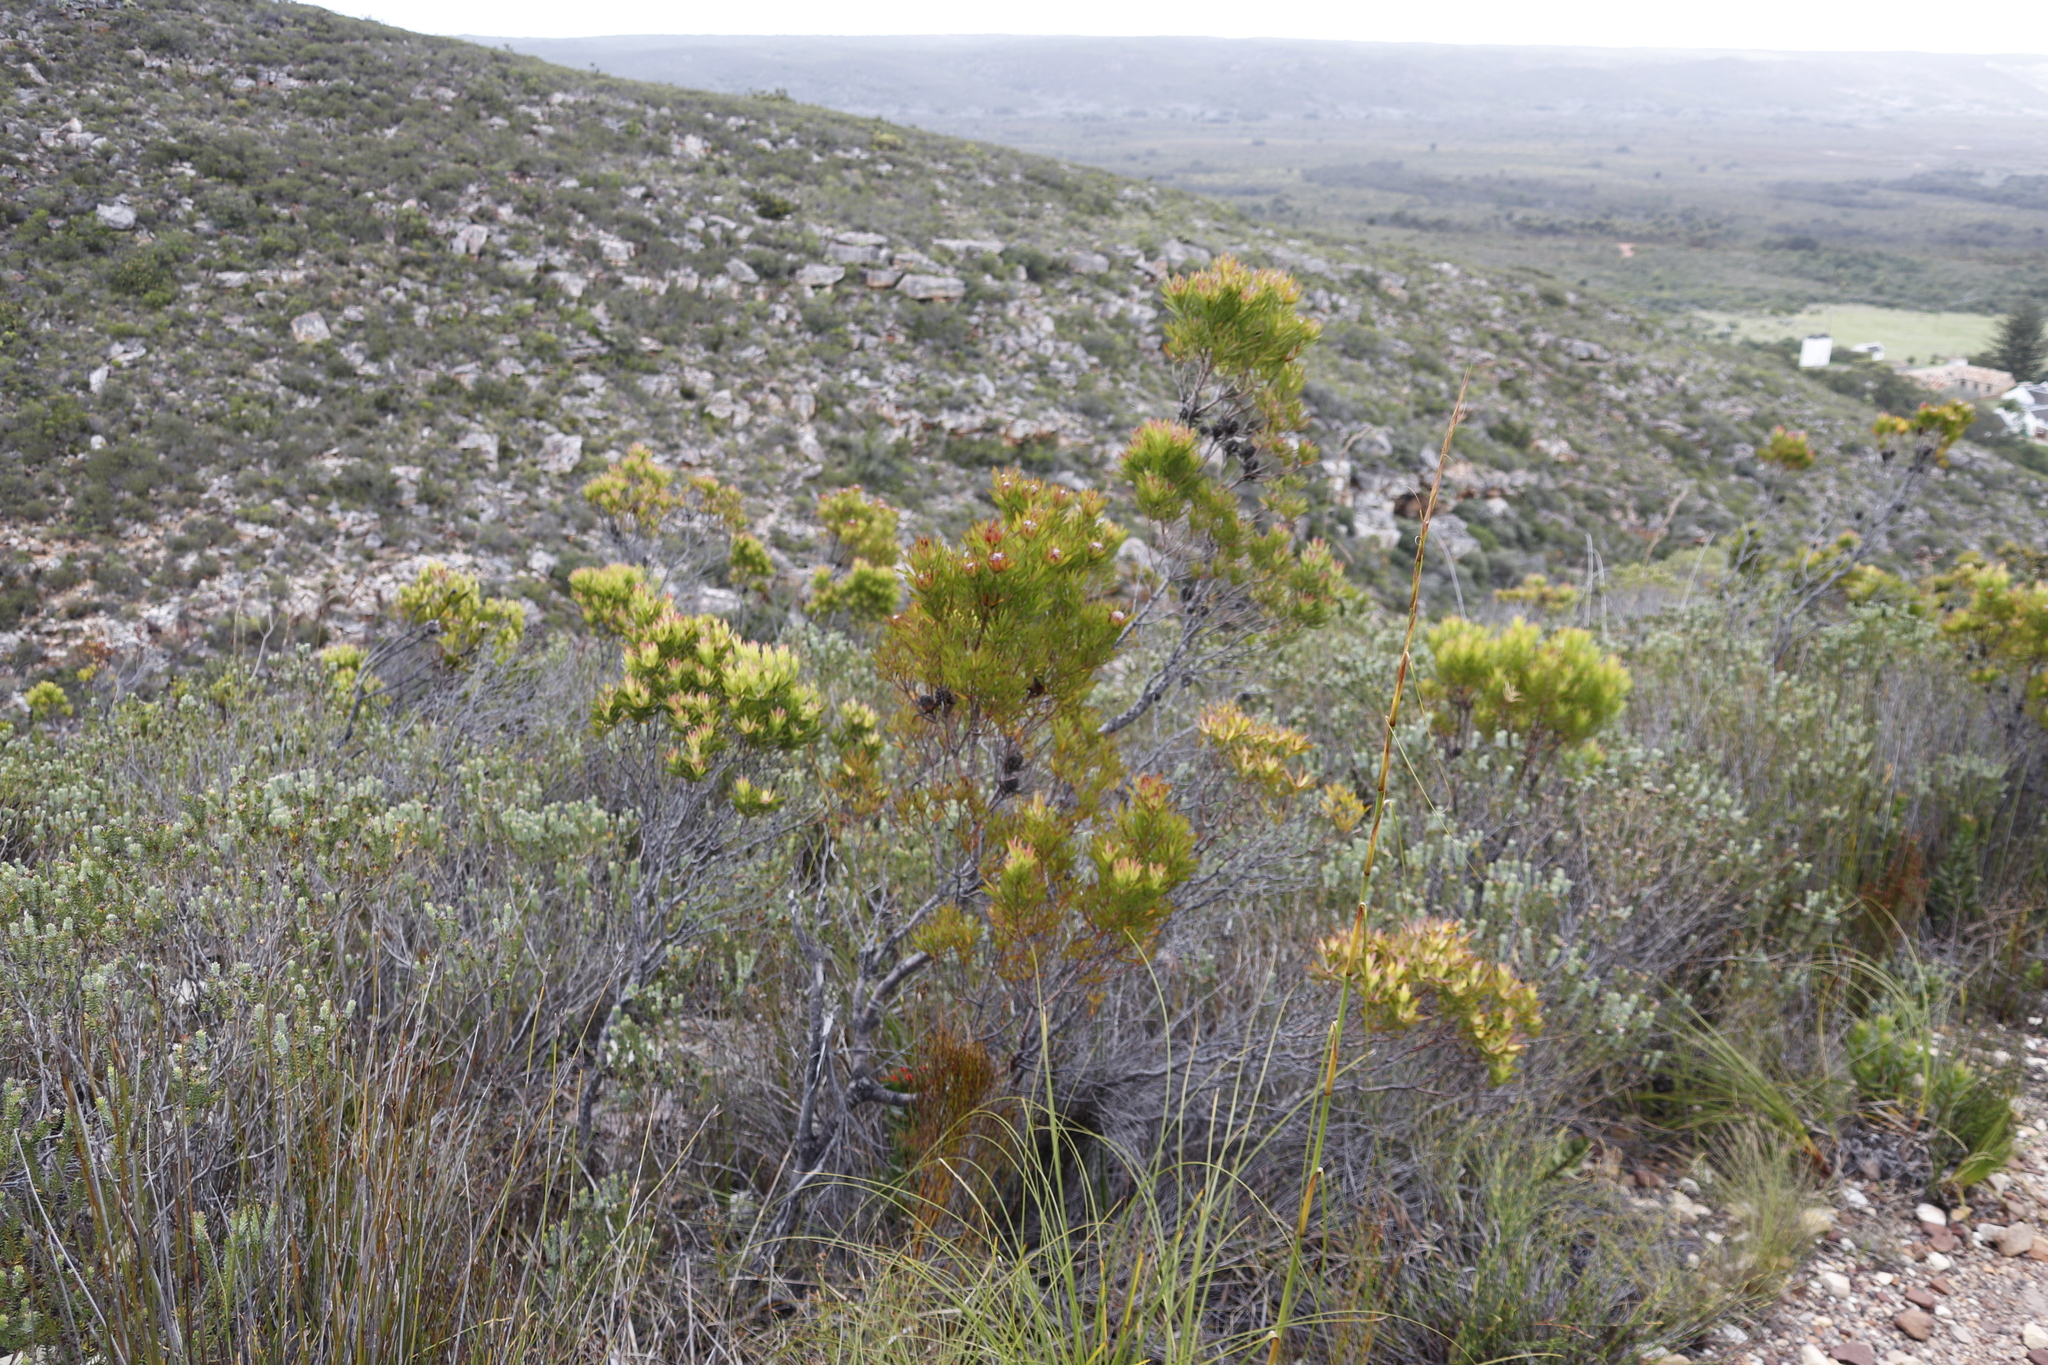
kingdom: Plantae
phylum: Tracheophyta
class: Magnoliopsida
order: Proteales
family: Proteaceae
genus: Leucadendron
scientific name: Leucadendron xanthoconus
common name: Sickle-leaf conebush
